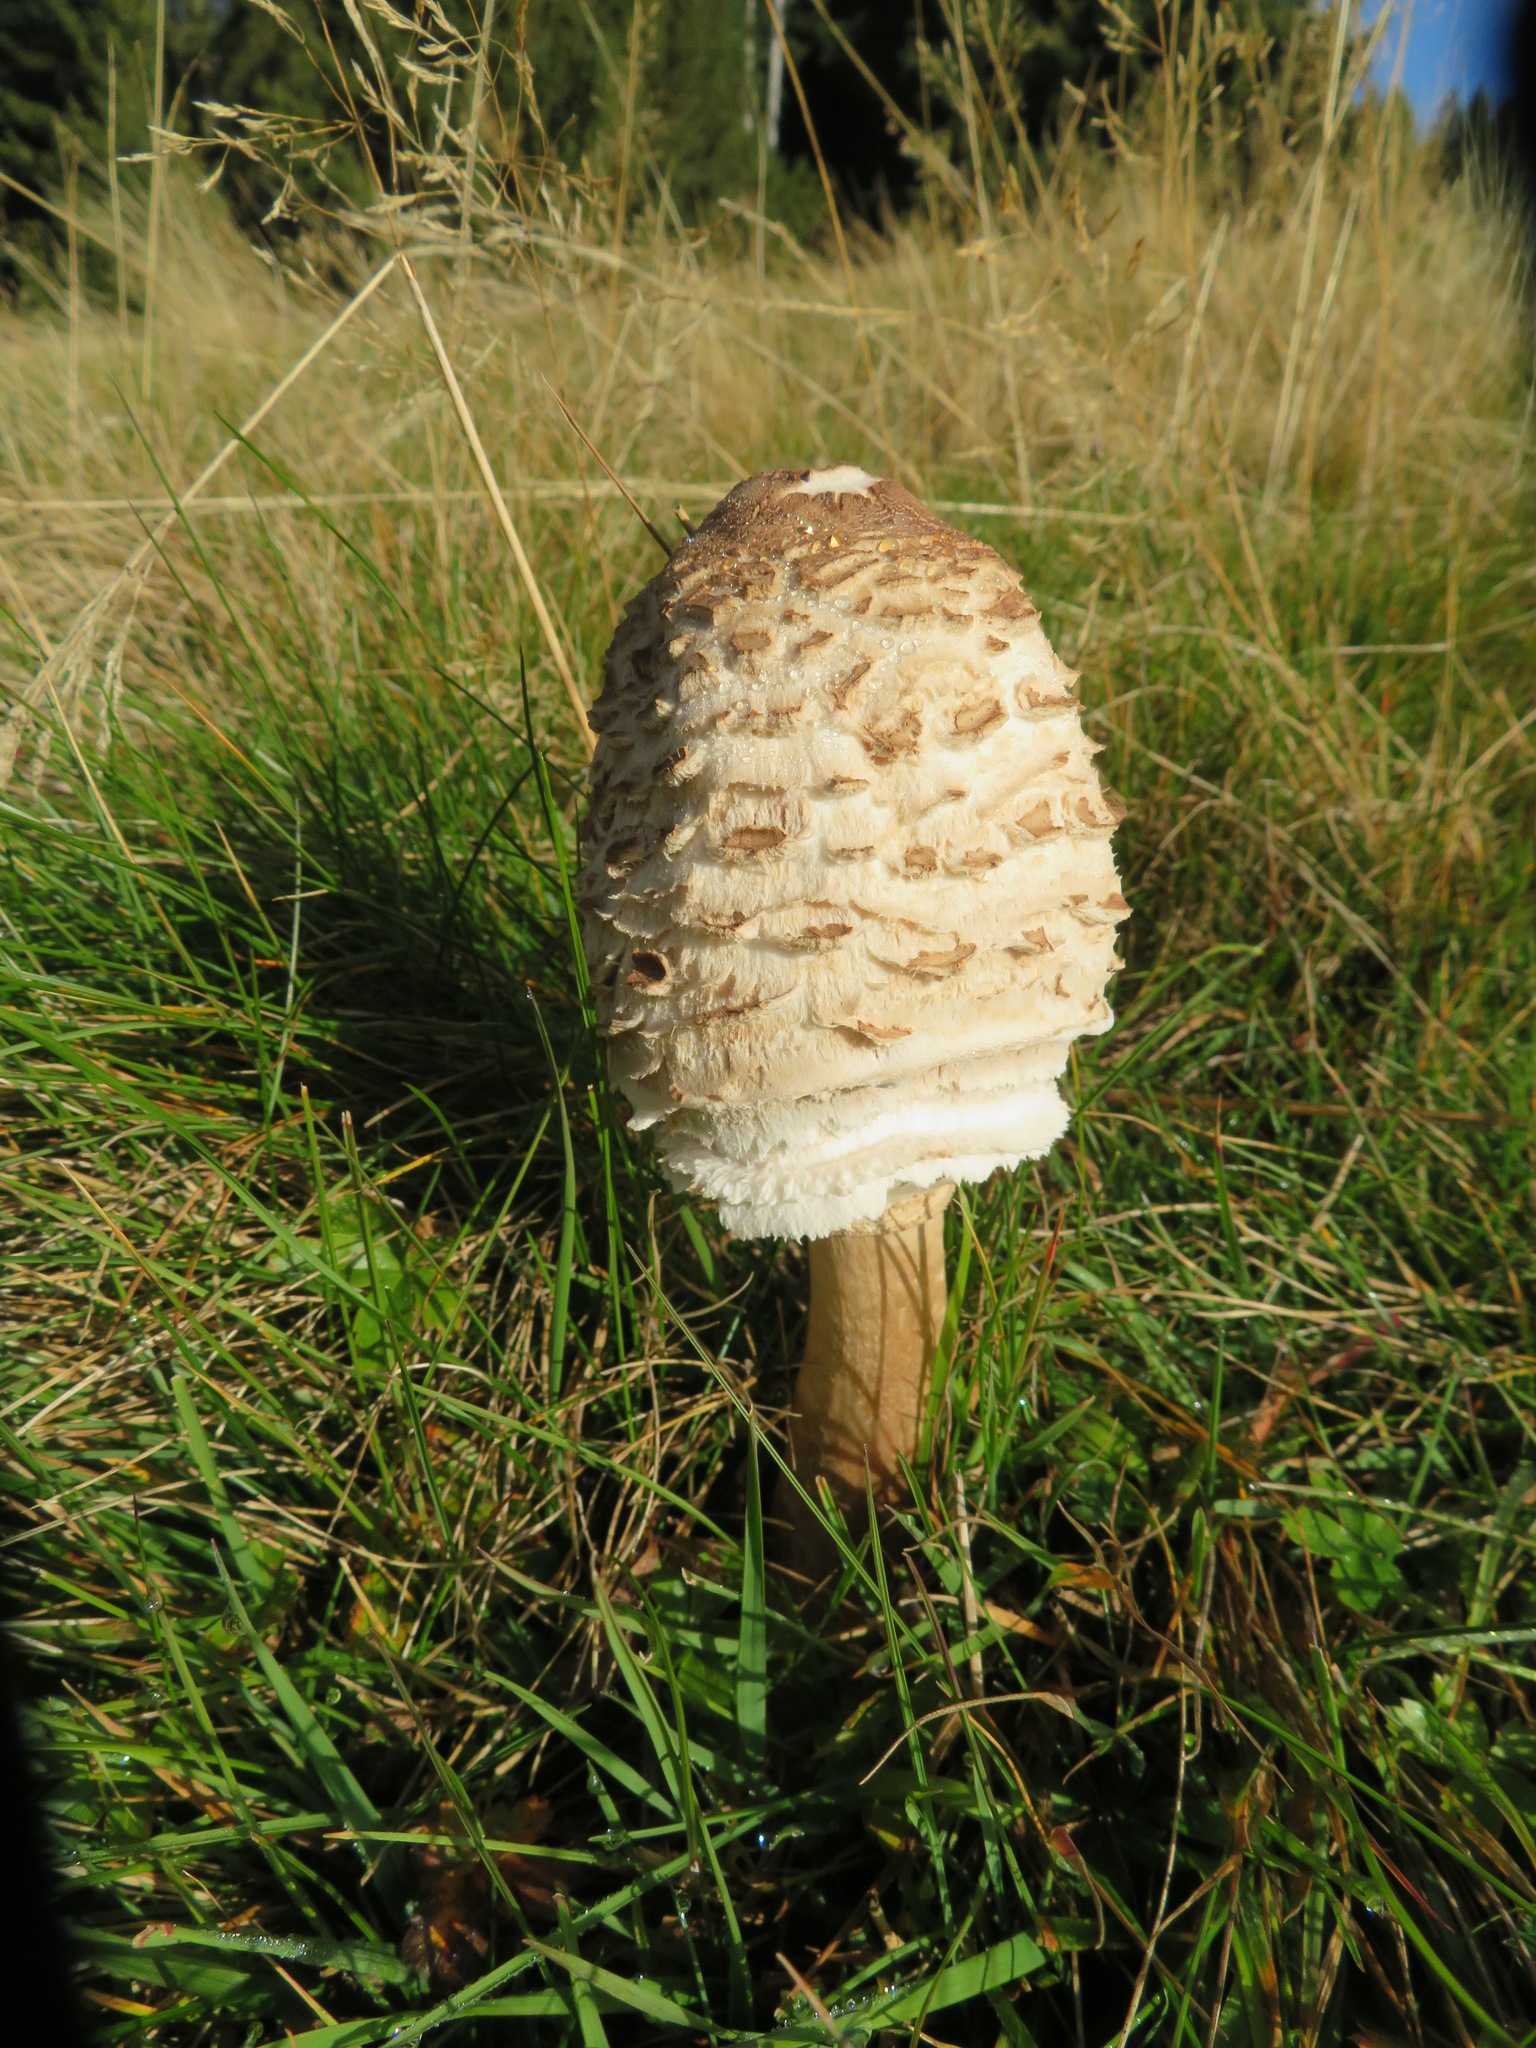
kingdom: Fungi
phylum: Basidiomycota
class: Agaricomycetes
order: Agaricales
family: Agaricaceae
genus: Macrolepiota
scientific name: Macrolepiota procera
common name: Parasol
